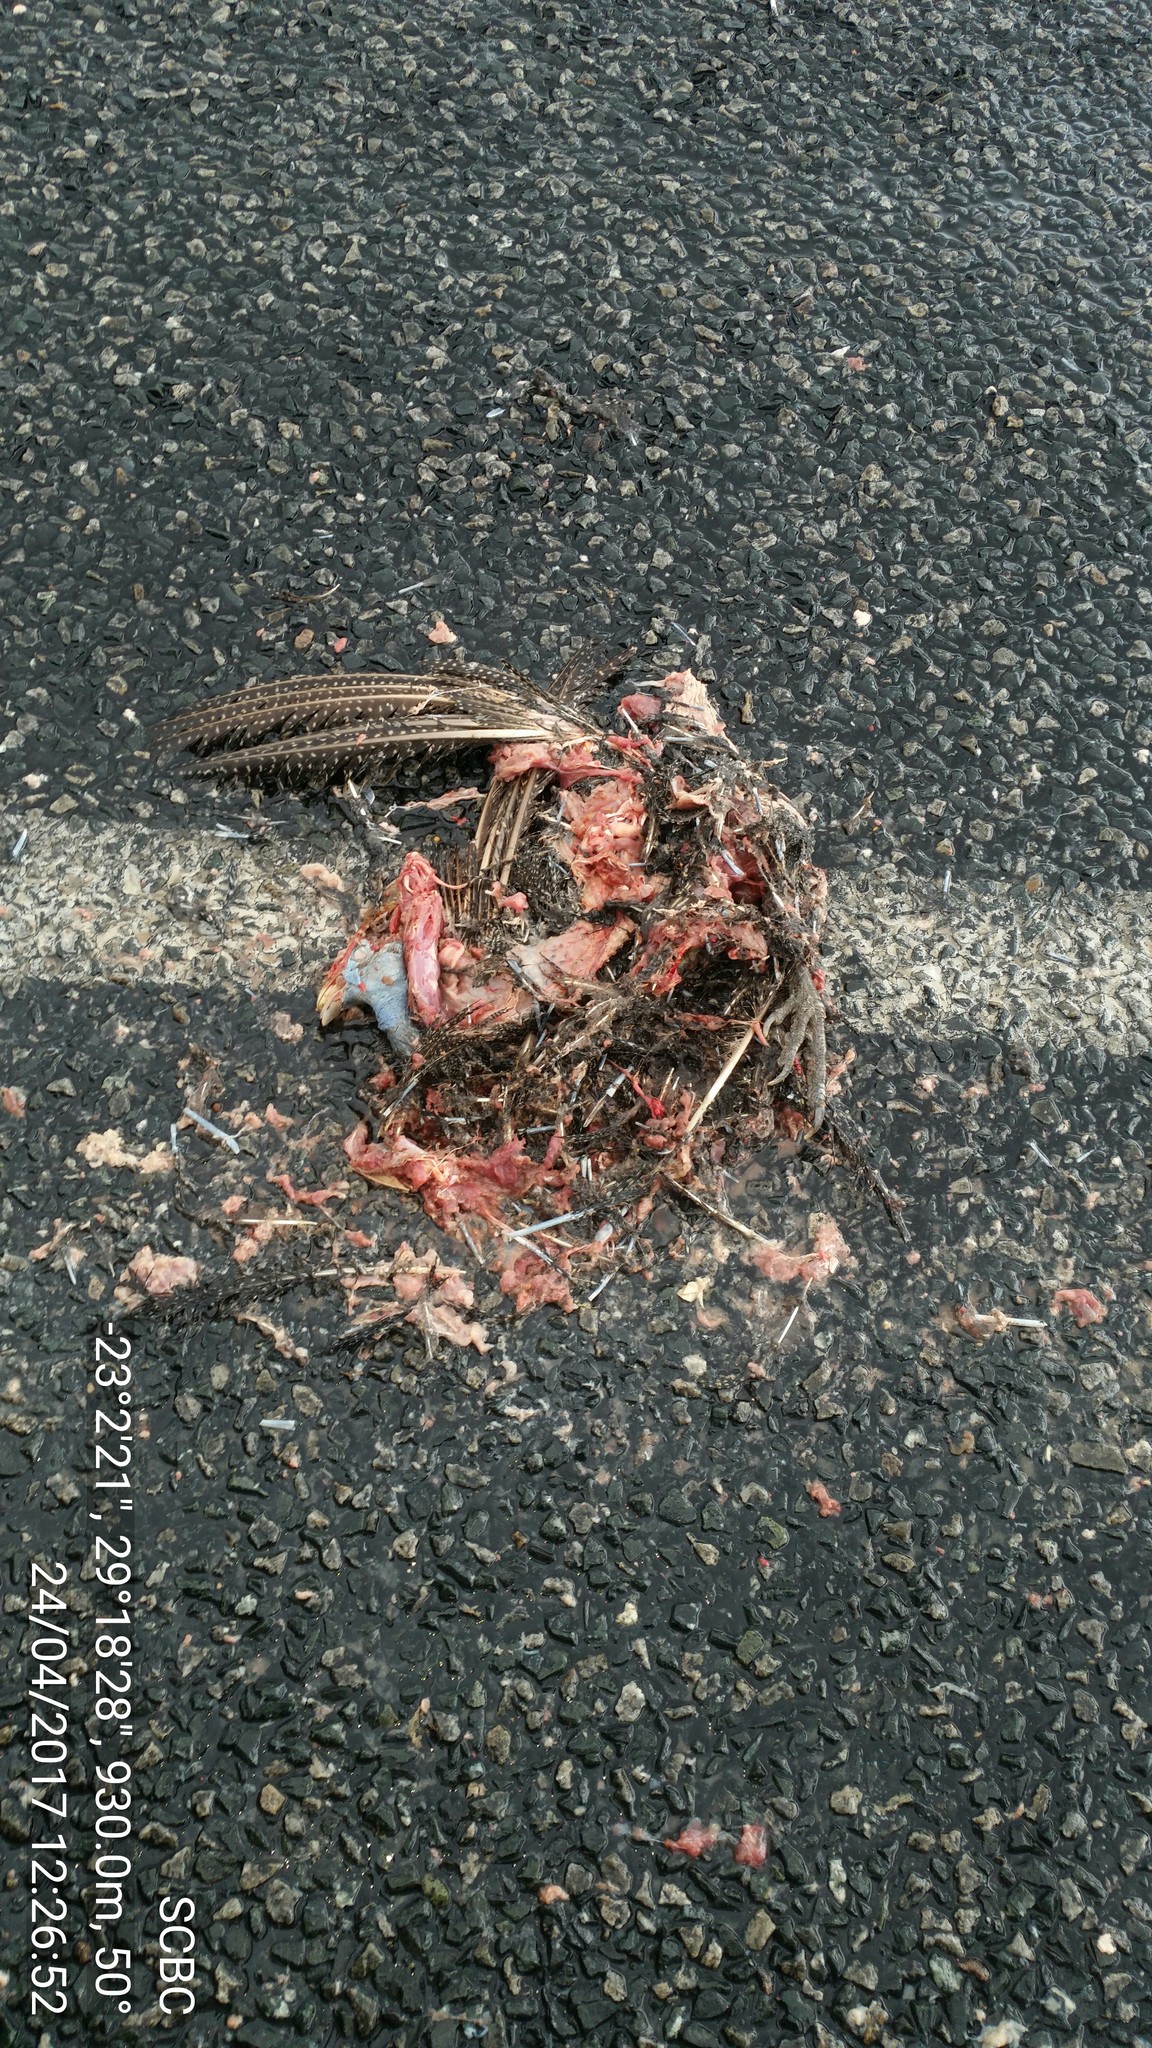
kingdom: Animalia
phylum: Chordata
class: Aves
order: Galliformes
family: Numididae
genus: Numida
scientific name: Numida meleagris
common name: Helmeted guineafowl
